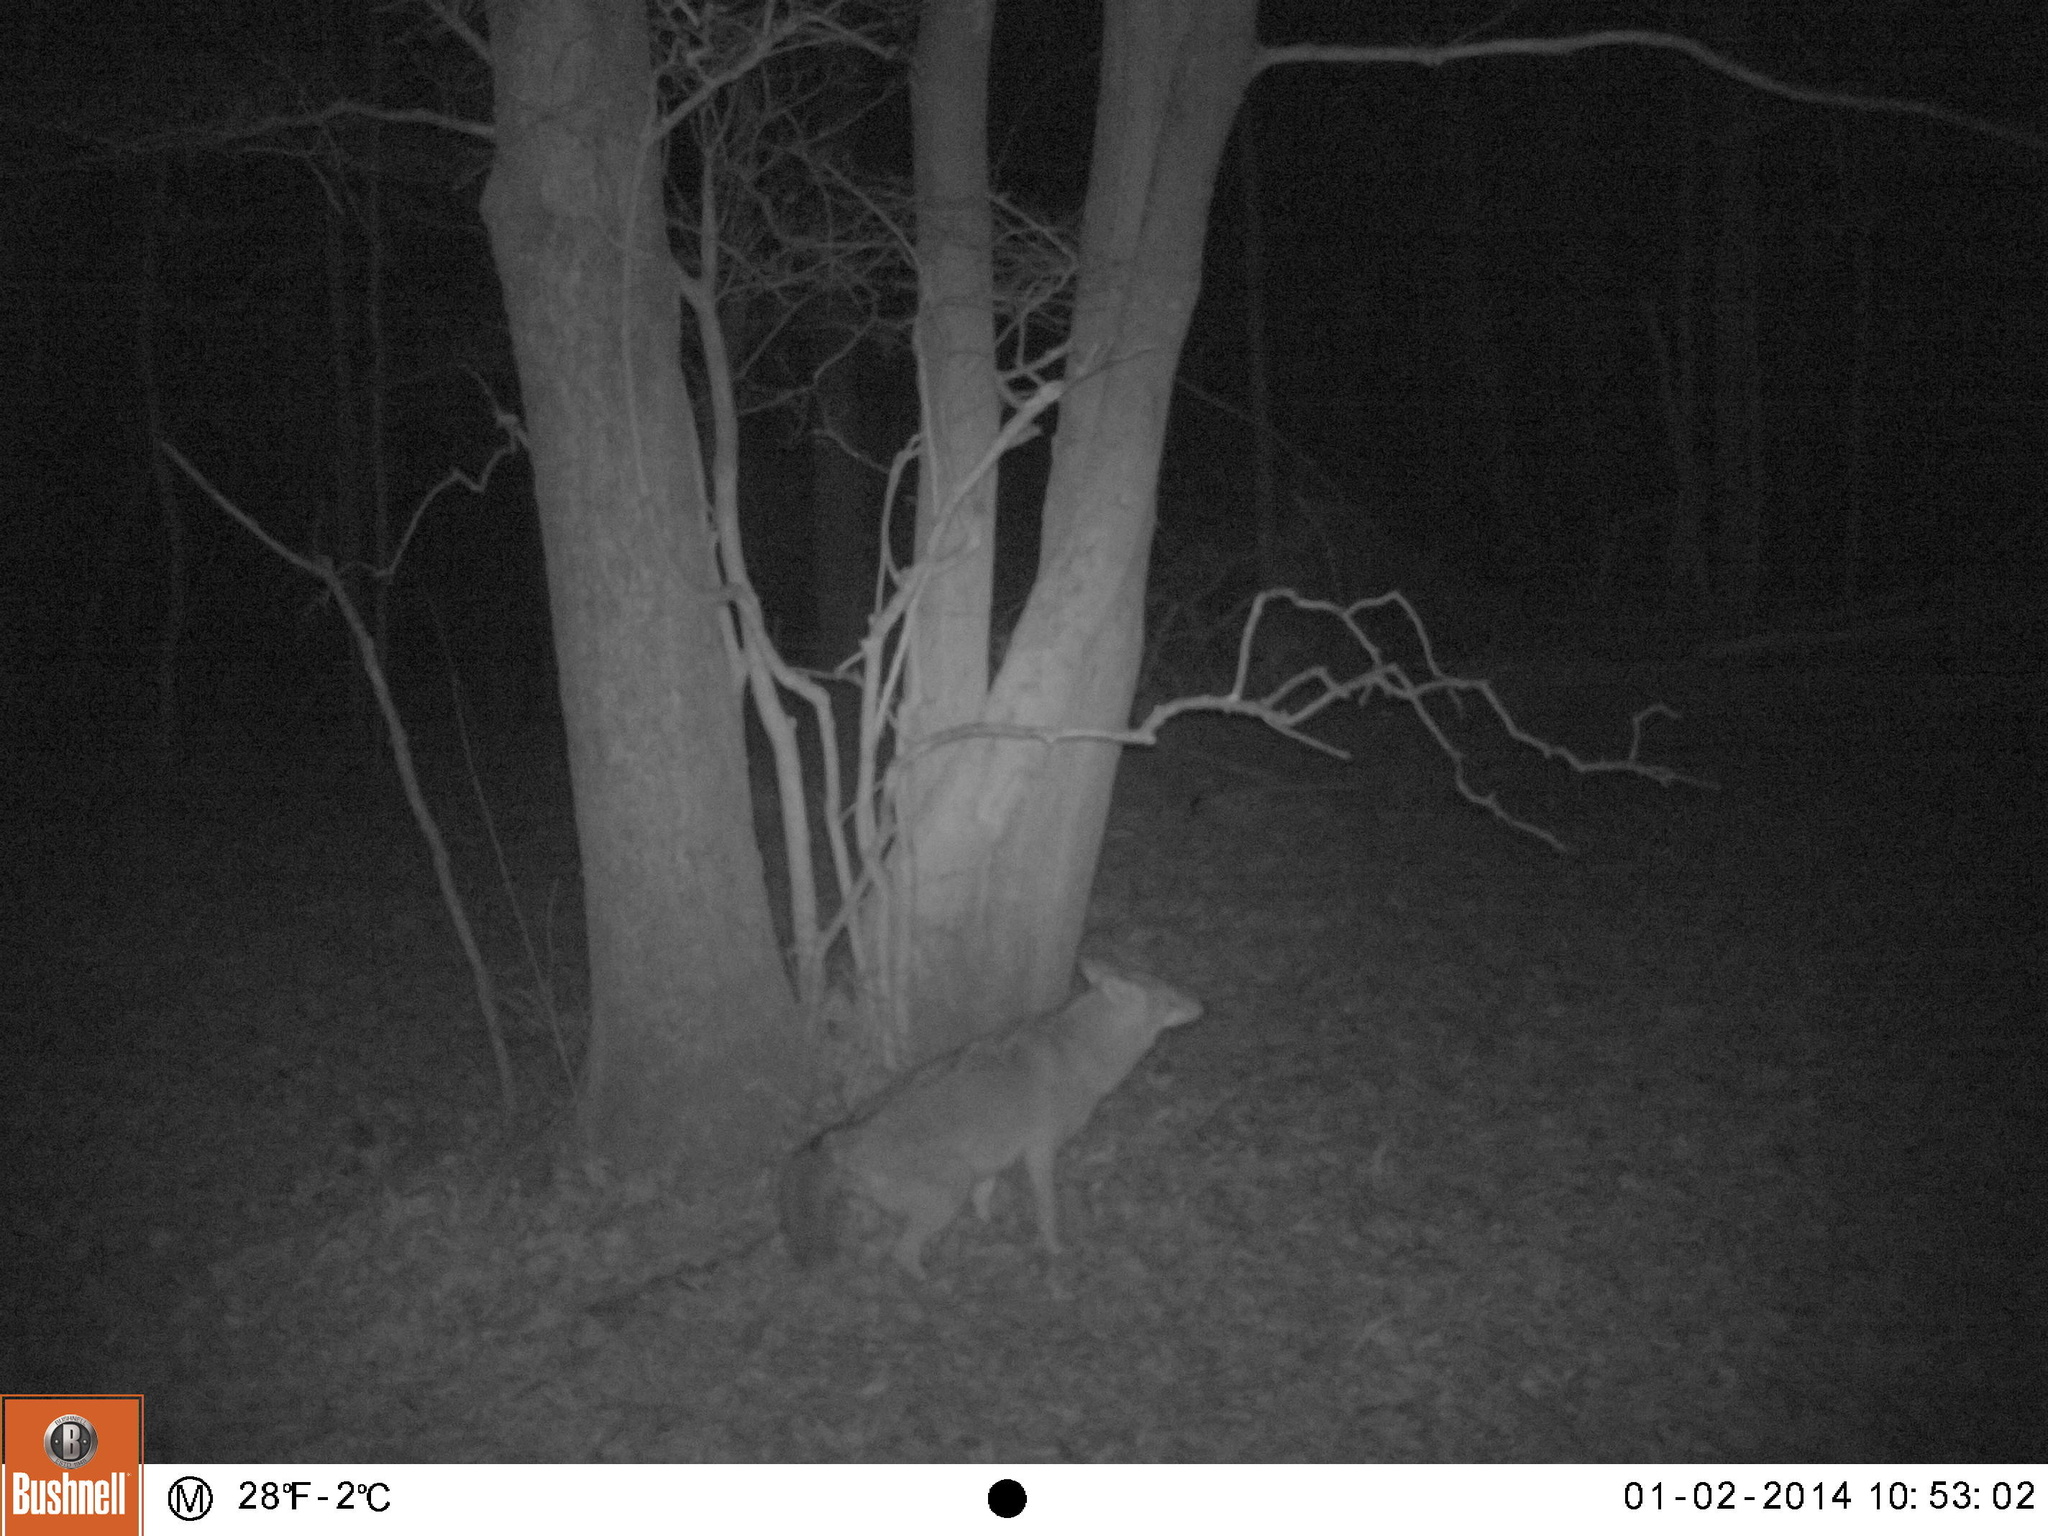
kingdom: Animalia
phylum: Chordata
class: Mammalia
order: Carnivora
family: Canidae
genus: Canis
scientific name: Canis latrans
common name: Coyote
